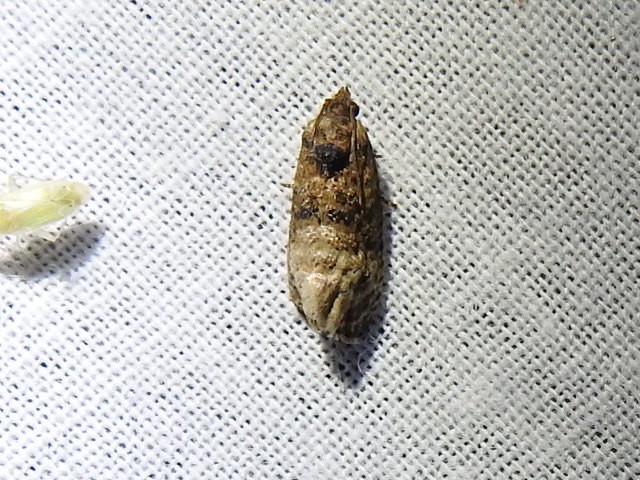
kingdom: Animalia
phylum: Arthropoda
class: Insecta
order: Lepidoptera
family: Tortricidae
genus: Ecdytolopha
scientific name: Ecdytolopha mana
